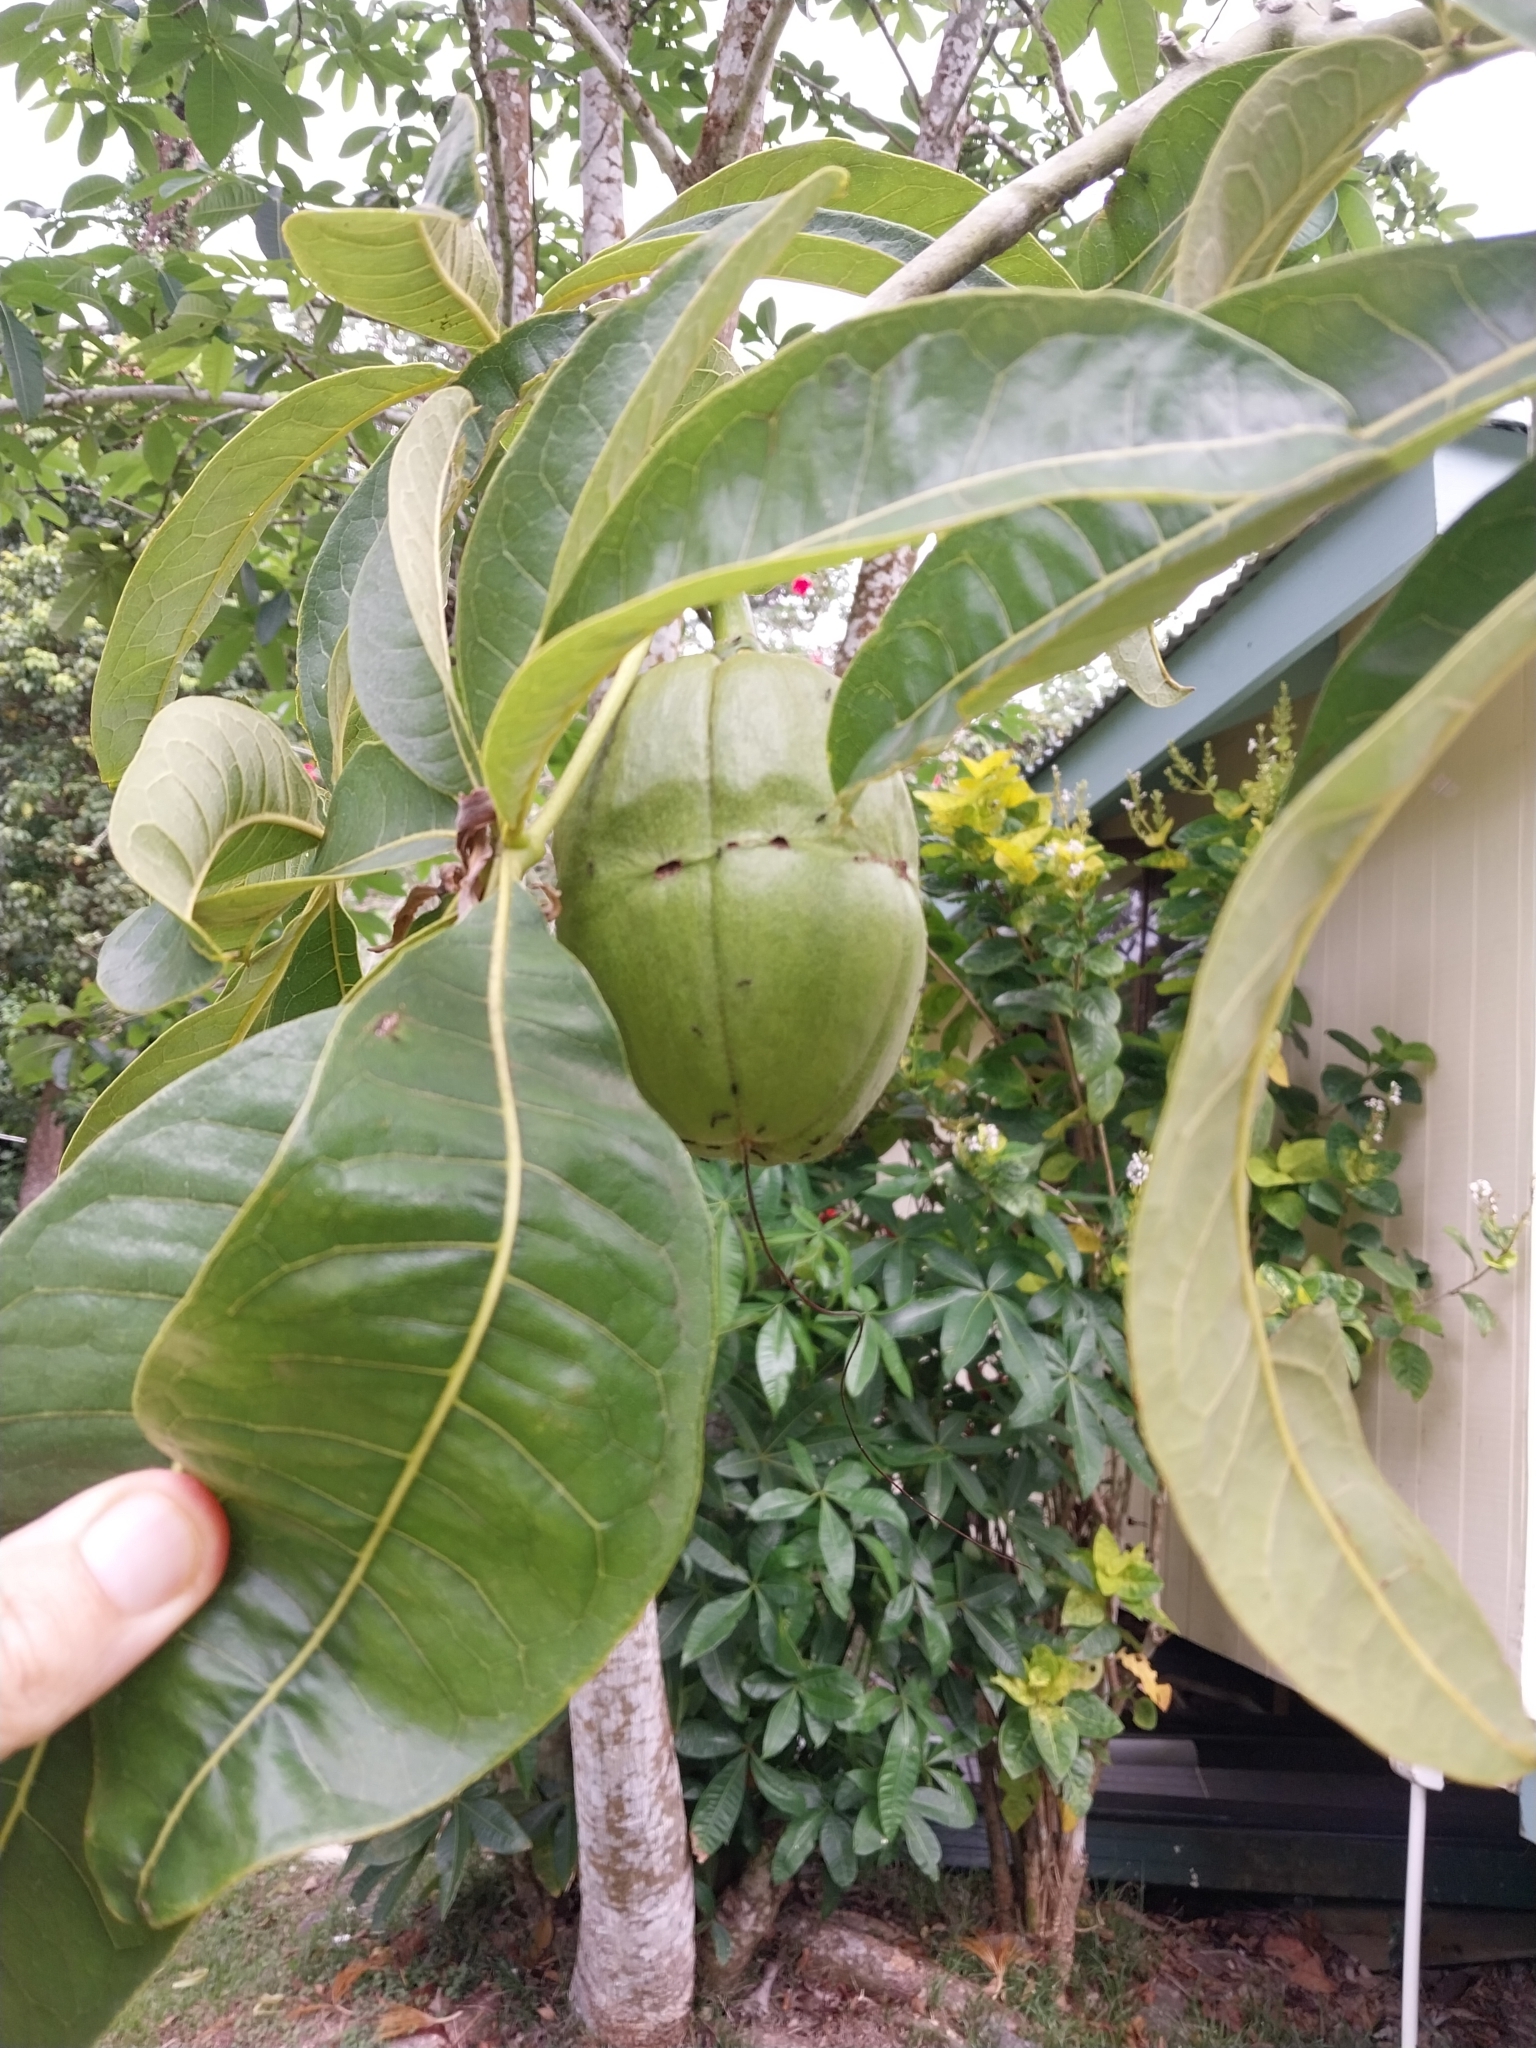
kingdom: Plantae
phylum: Tracheophyta
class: Magnoliopsida
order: Malvales
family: Malvaceae
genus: Pachira
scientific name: Pachira glabra
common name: Moneytree
